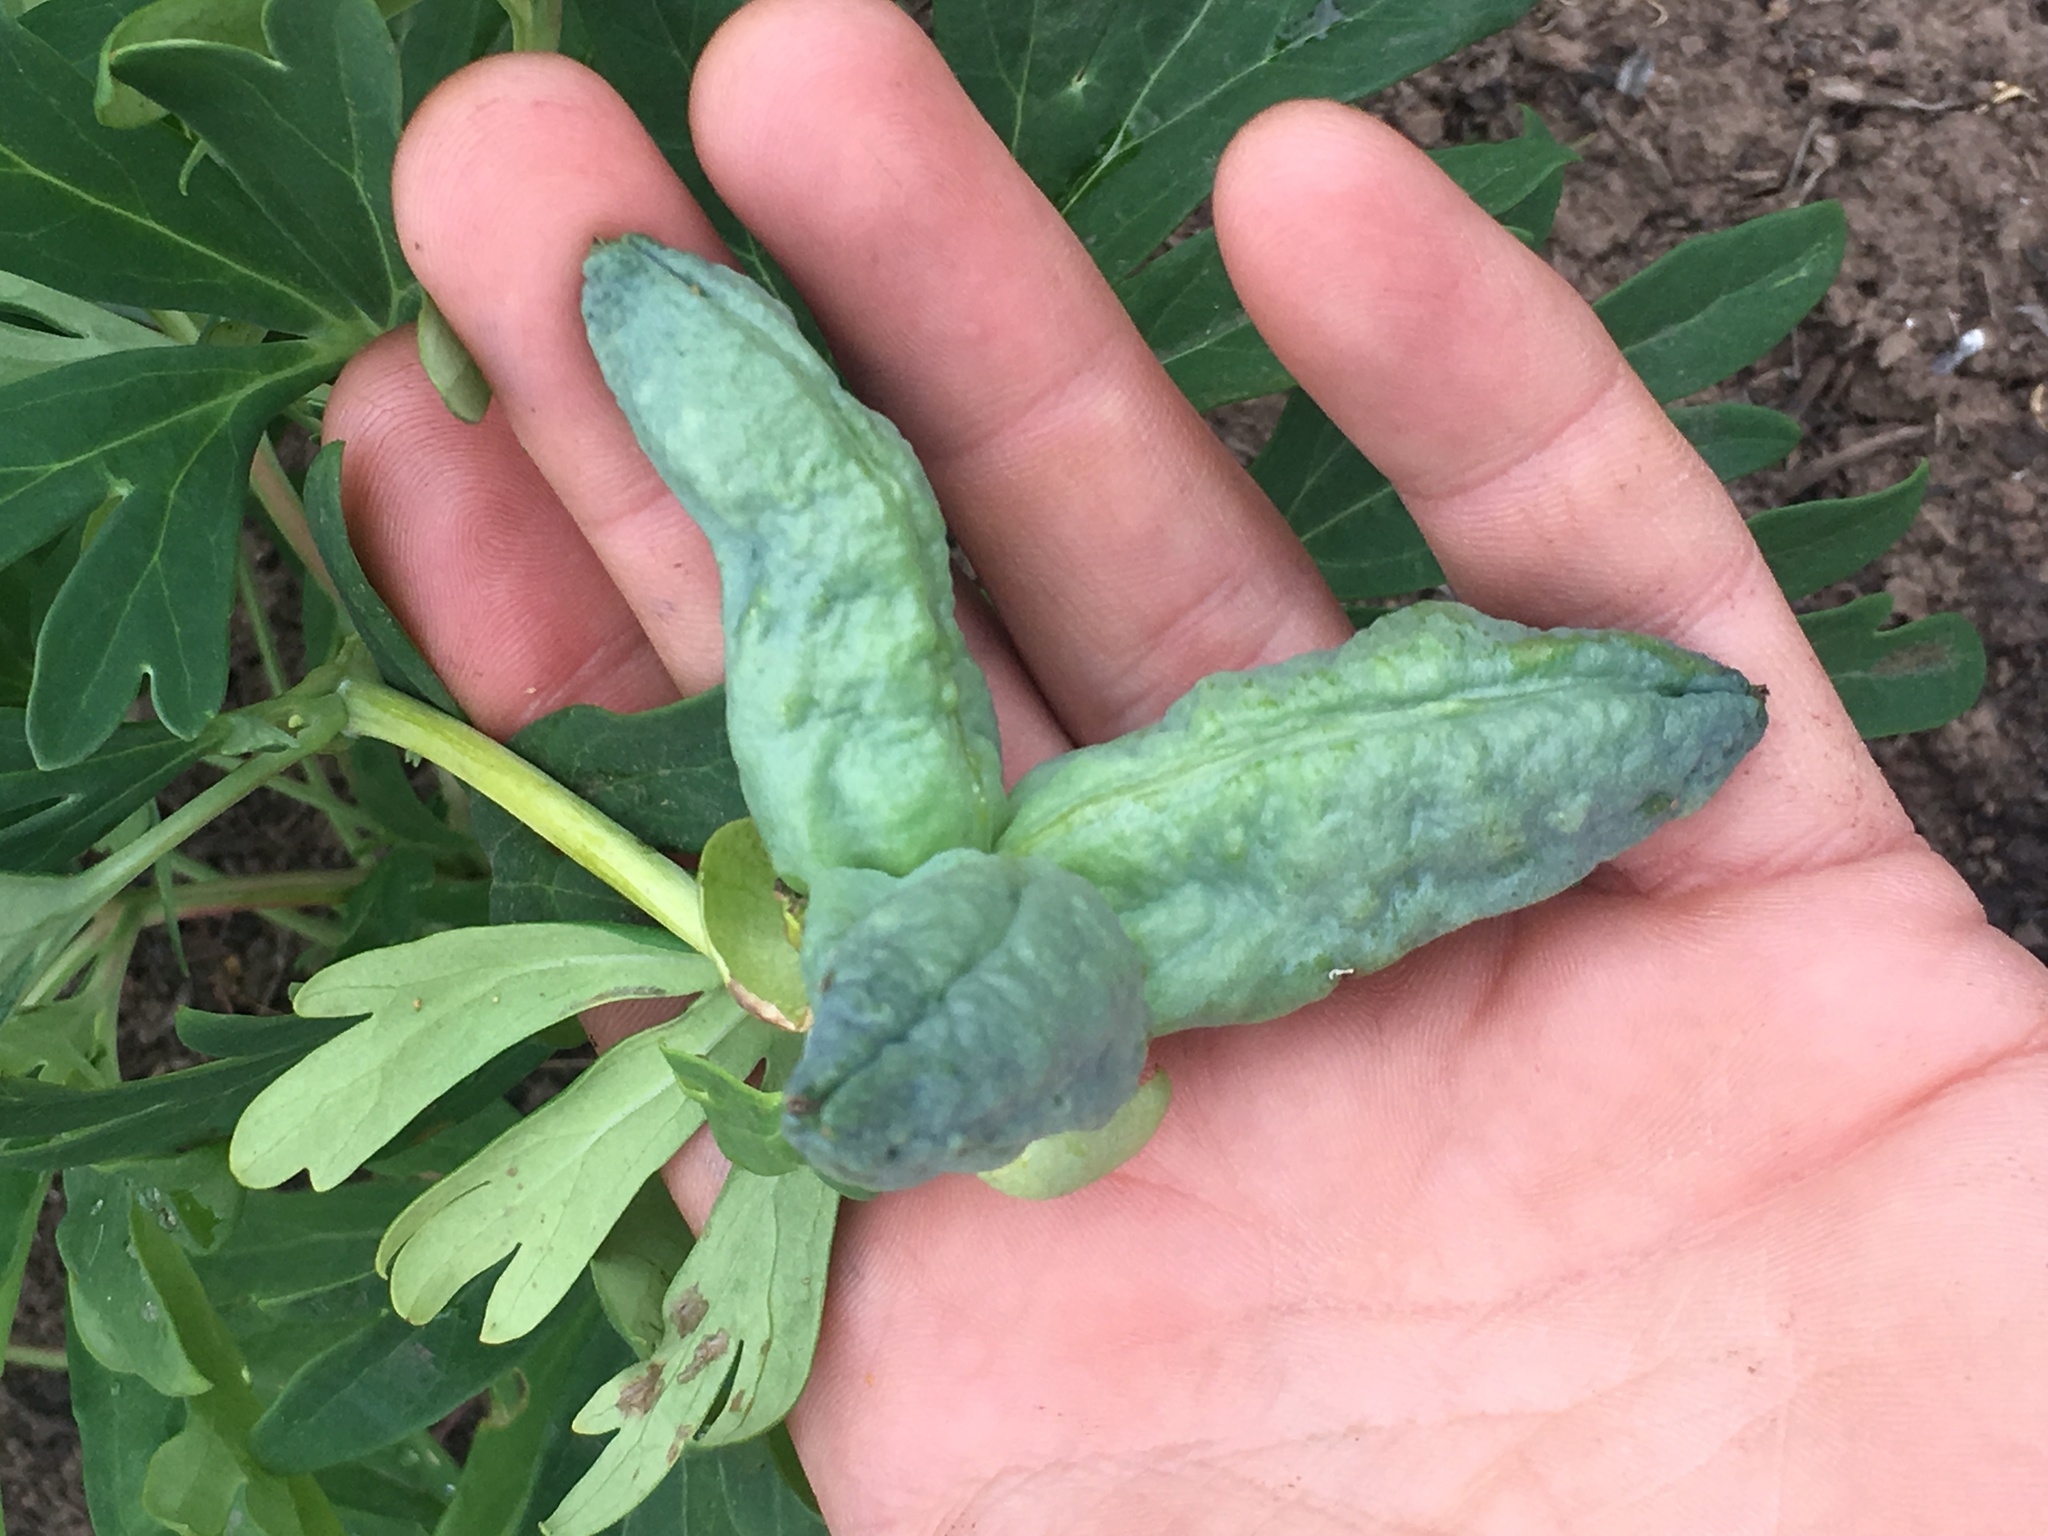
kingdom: Plantae
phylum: Tracheophyta
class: Magnoliopsida
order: Saxifragales
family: Paeoniaceae
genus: Paeonia
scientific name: Paeonia californica
